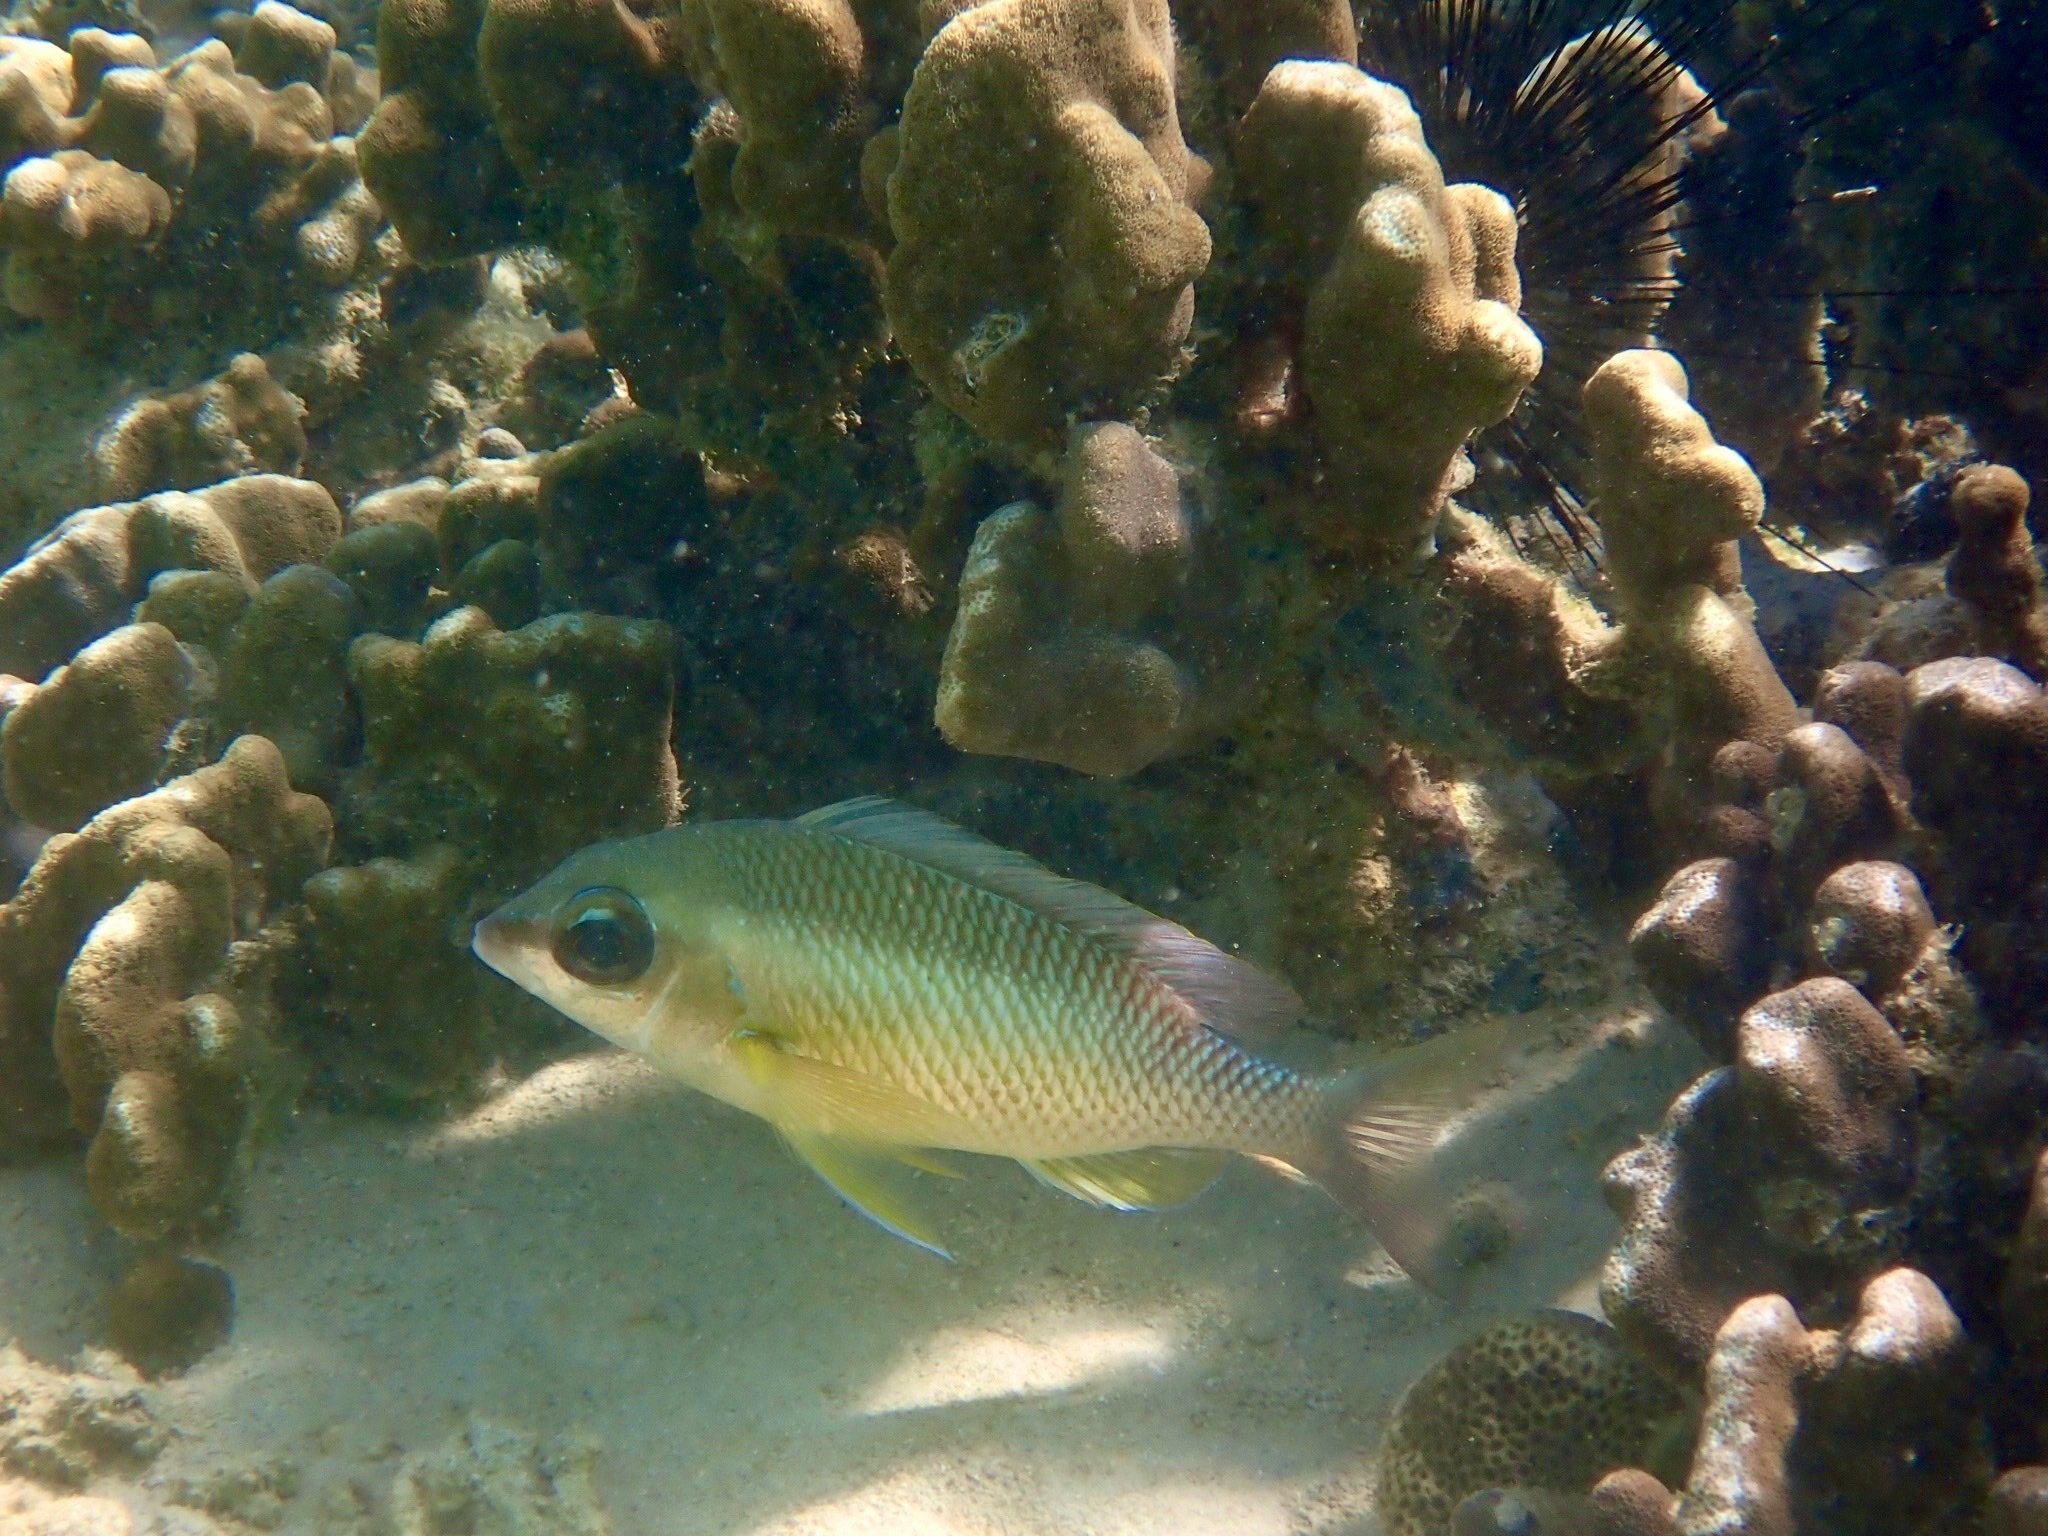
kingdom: Animalia
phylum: Chordata
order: Perciformes
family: Nemipteridae
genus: Scolopsis
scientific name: Scolopsis margaritifera
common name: Pearly monocle bream
